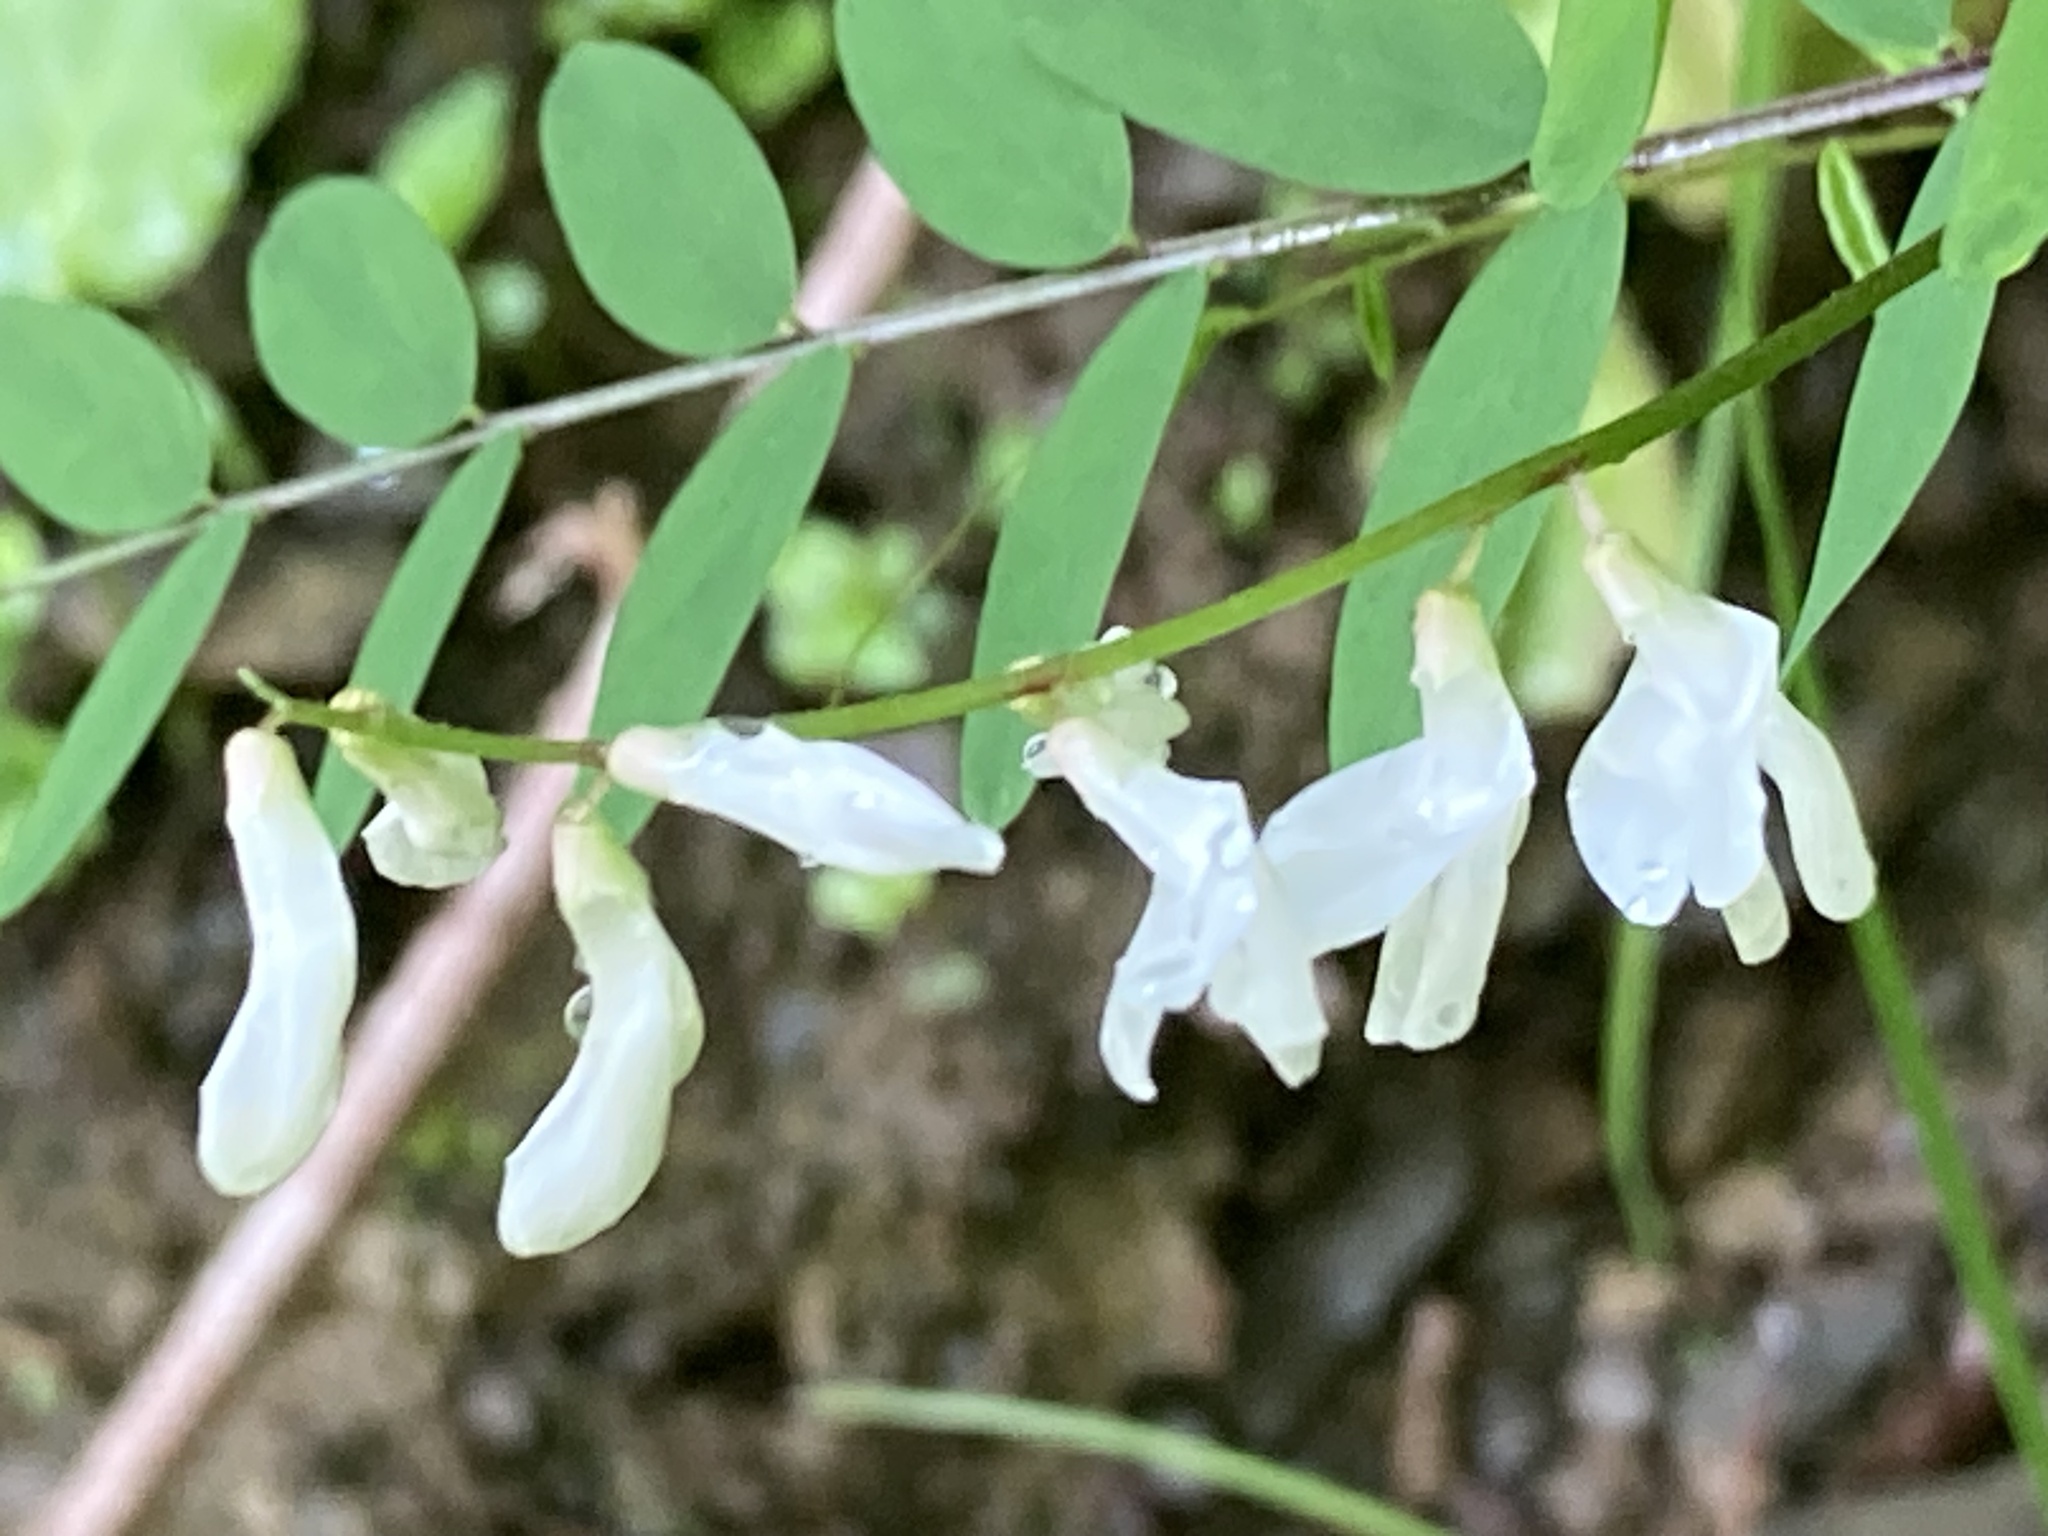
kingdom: Plantae
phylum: Tracheophyta
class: Magnoliopsida
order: Fabales
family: Fabaceae
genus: Vicia
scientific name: Vicia caroliniana
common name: Carolina vetch
